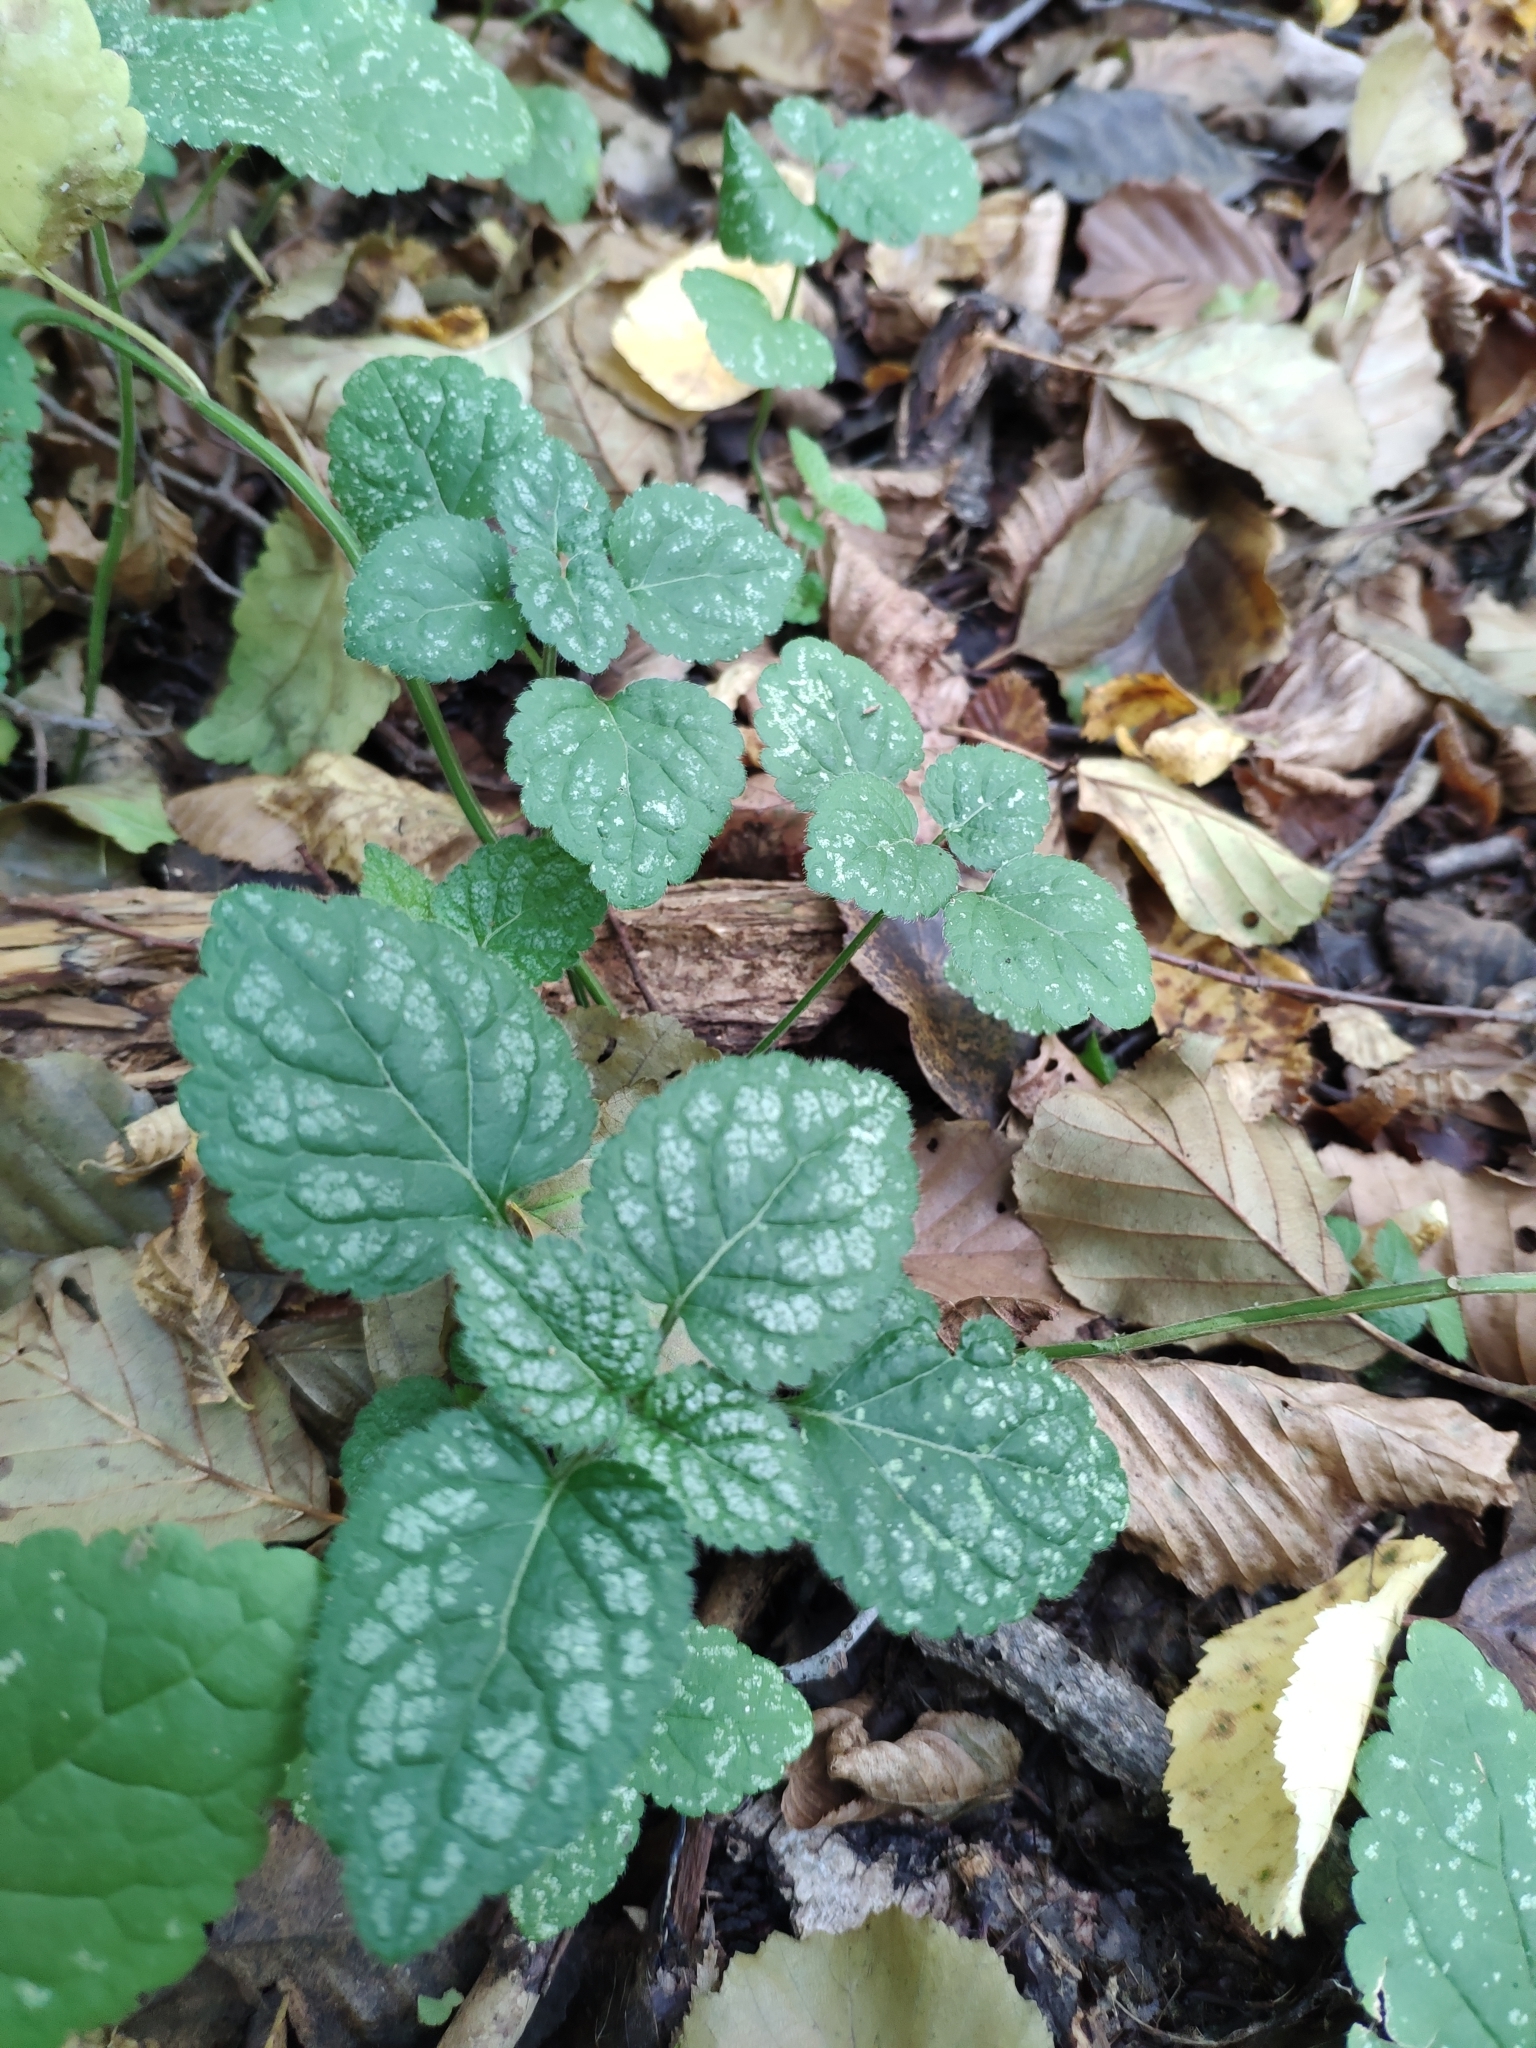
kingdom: Plantae
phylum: Tracheophyta
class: Magnoliopsida
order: Lamiales
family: Lamiaceae
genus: Lamium
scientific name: Lamium galeobdolon
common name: Yellow archangel
